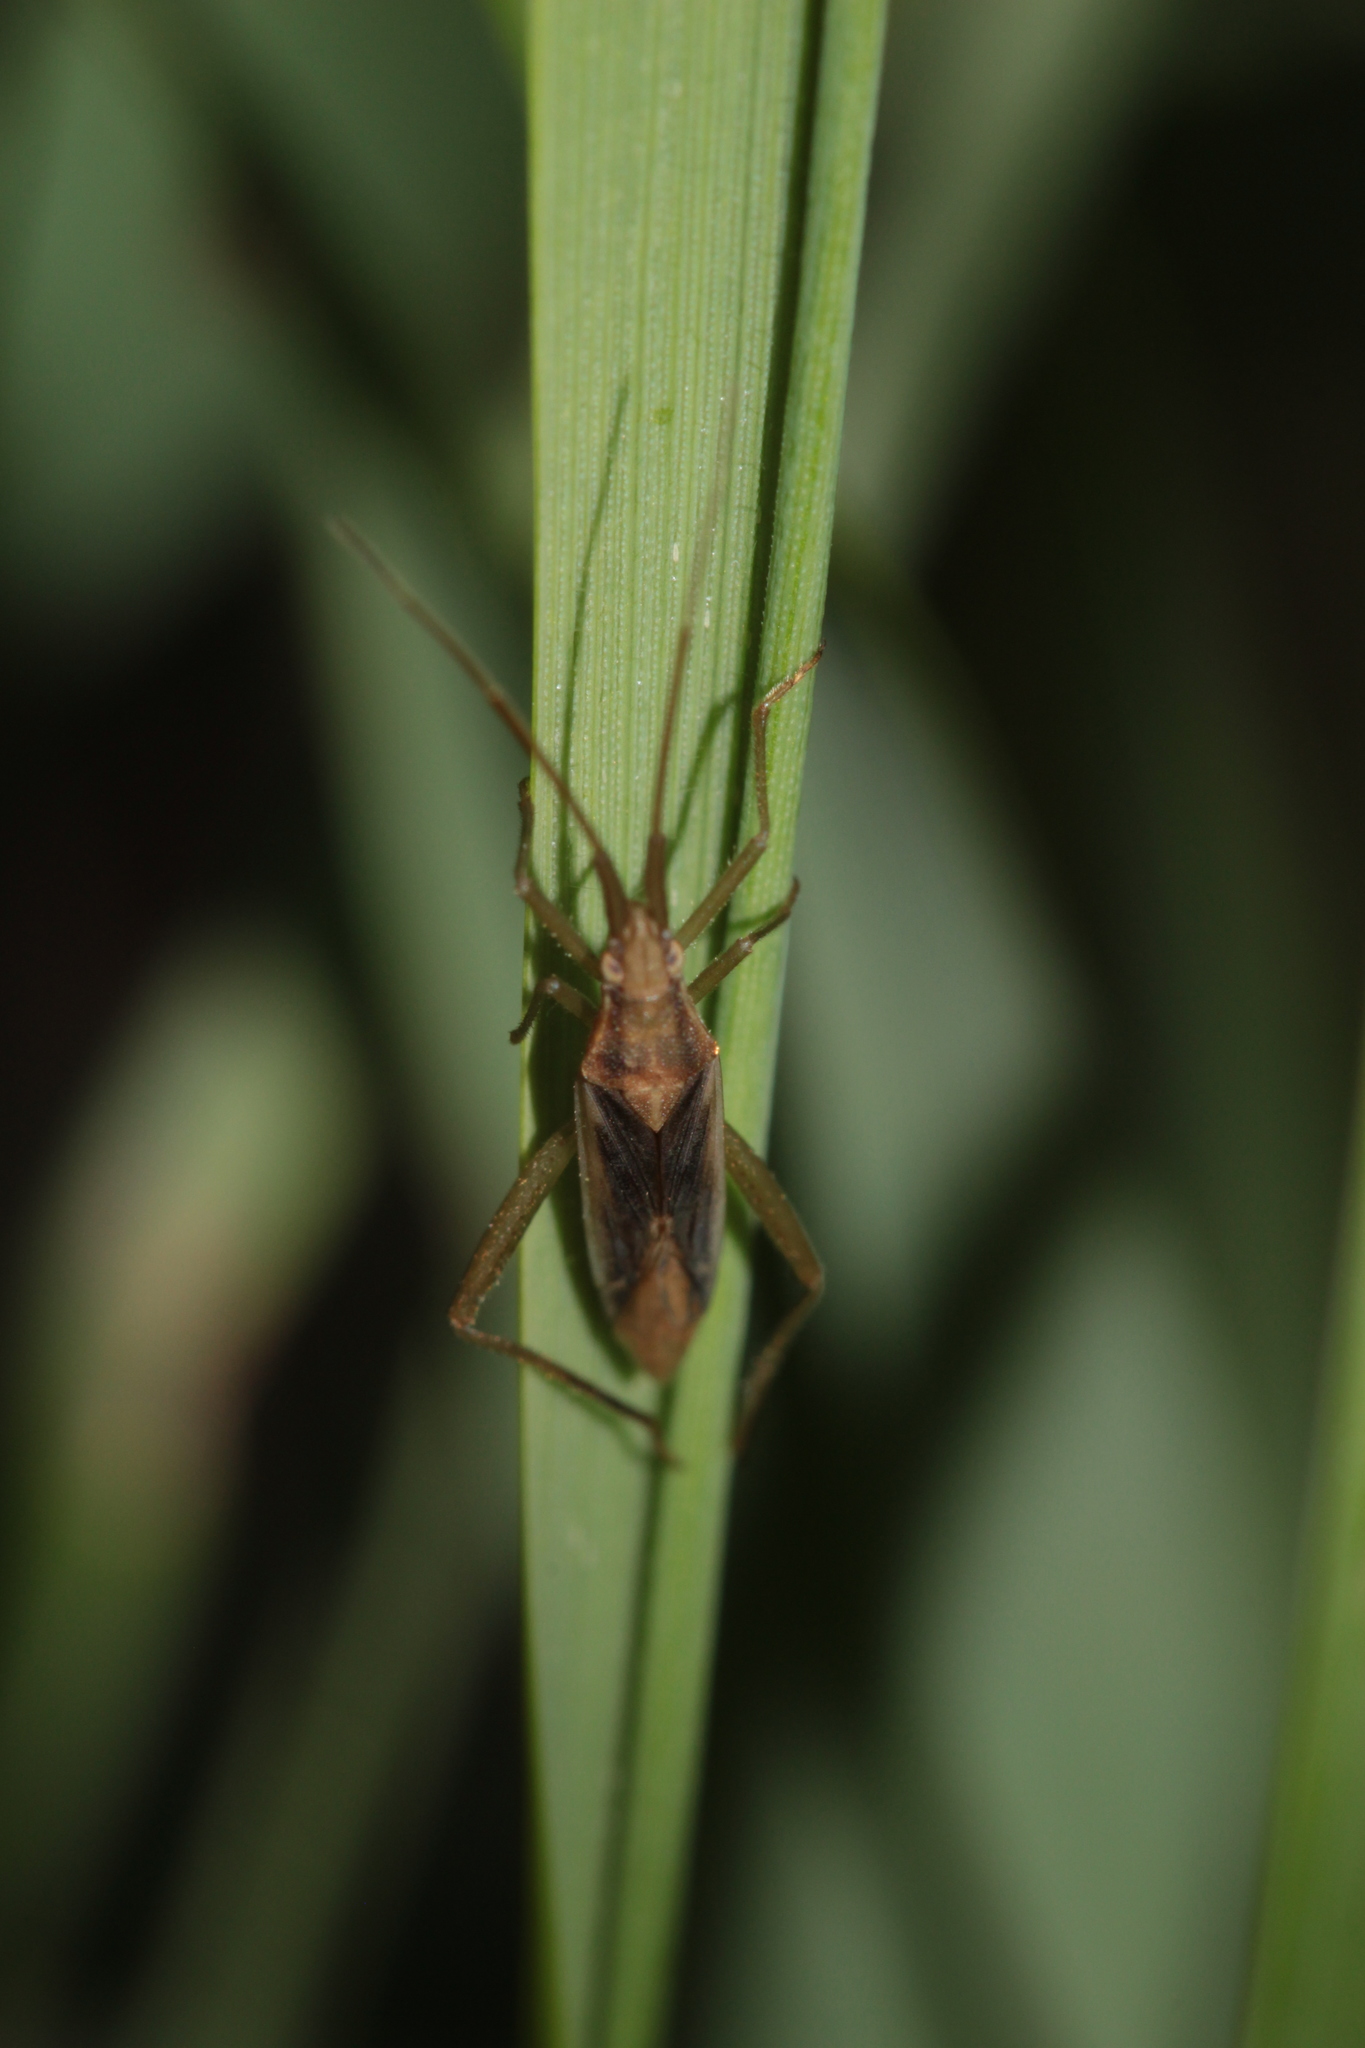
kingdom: Animalia
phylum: Arthropoda
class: Insecta
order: Hemiptera
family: Miridae
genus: Stenodema
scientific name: Stenodema laevigata
